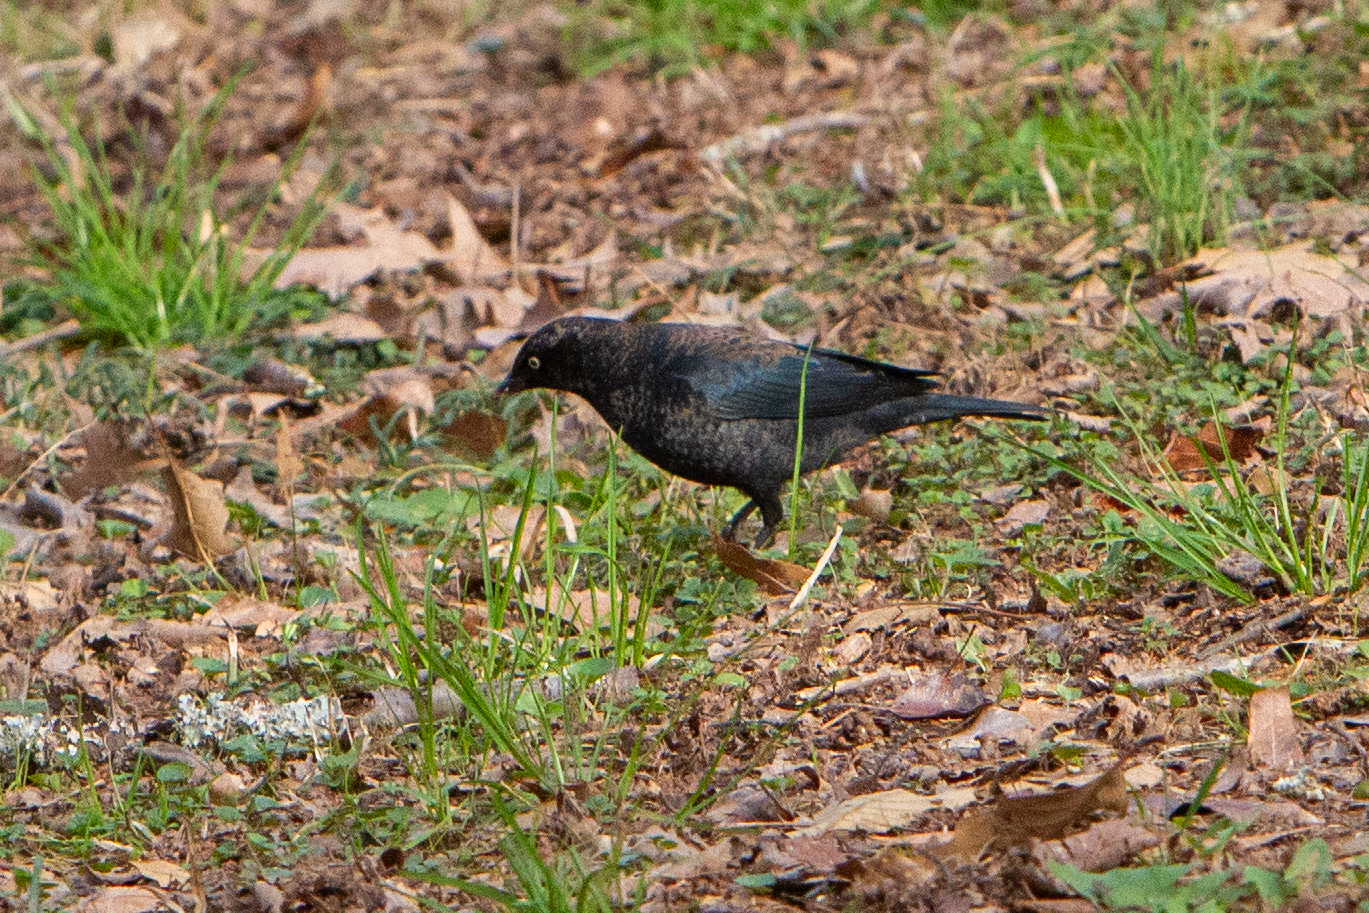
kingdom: Animalia
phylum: Chordata
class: Aves
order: Passeriformes
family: Icteridae
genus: Euphagus
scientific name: Euphagus carolinus
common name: Rusty blackbird
